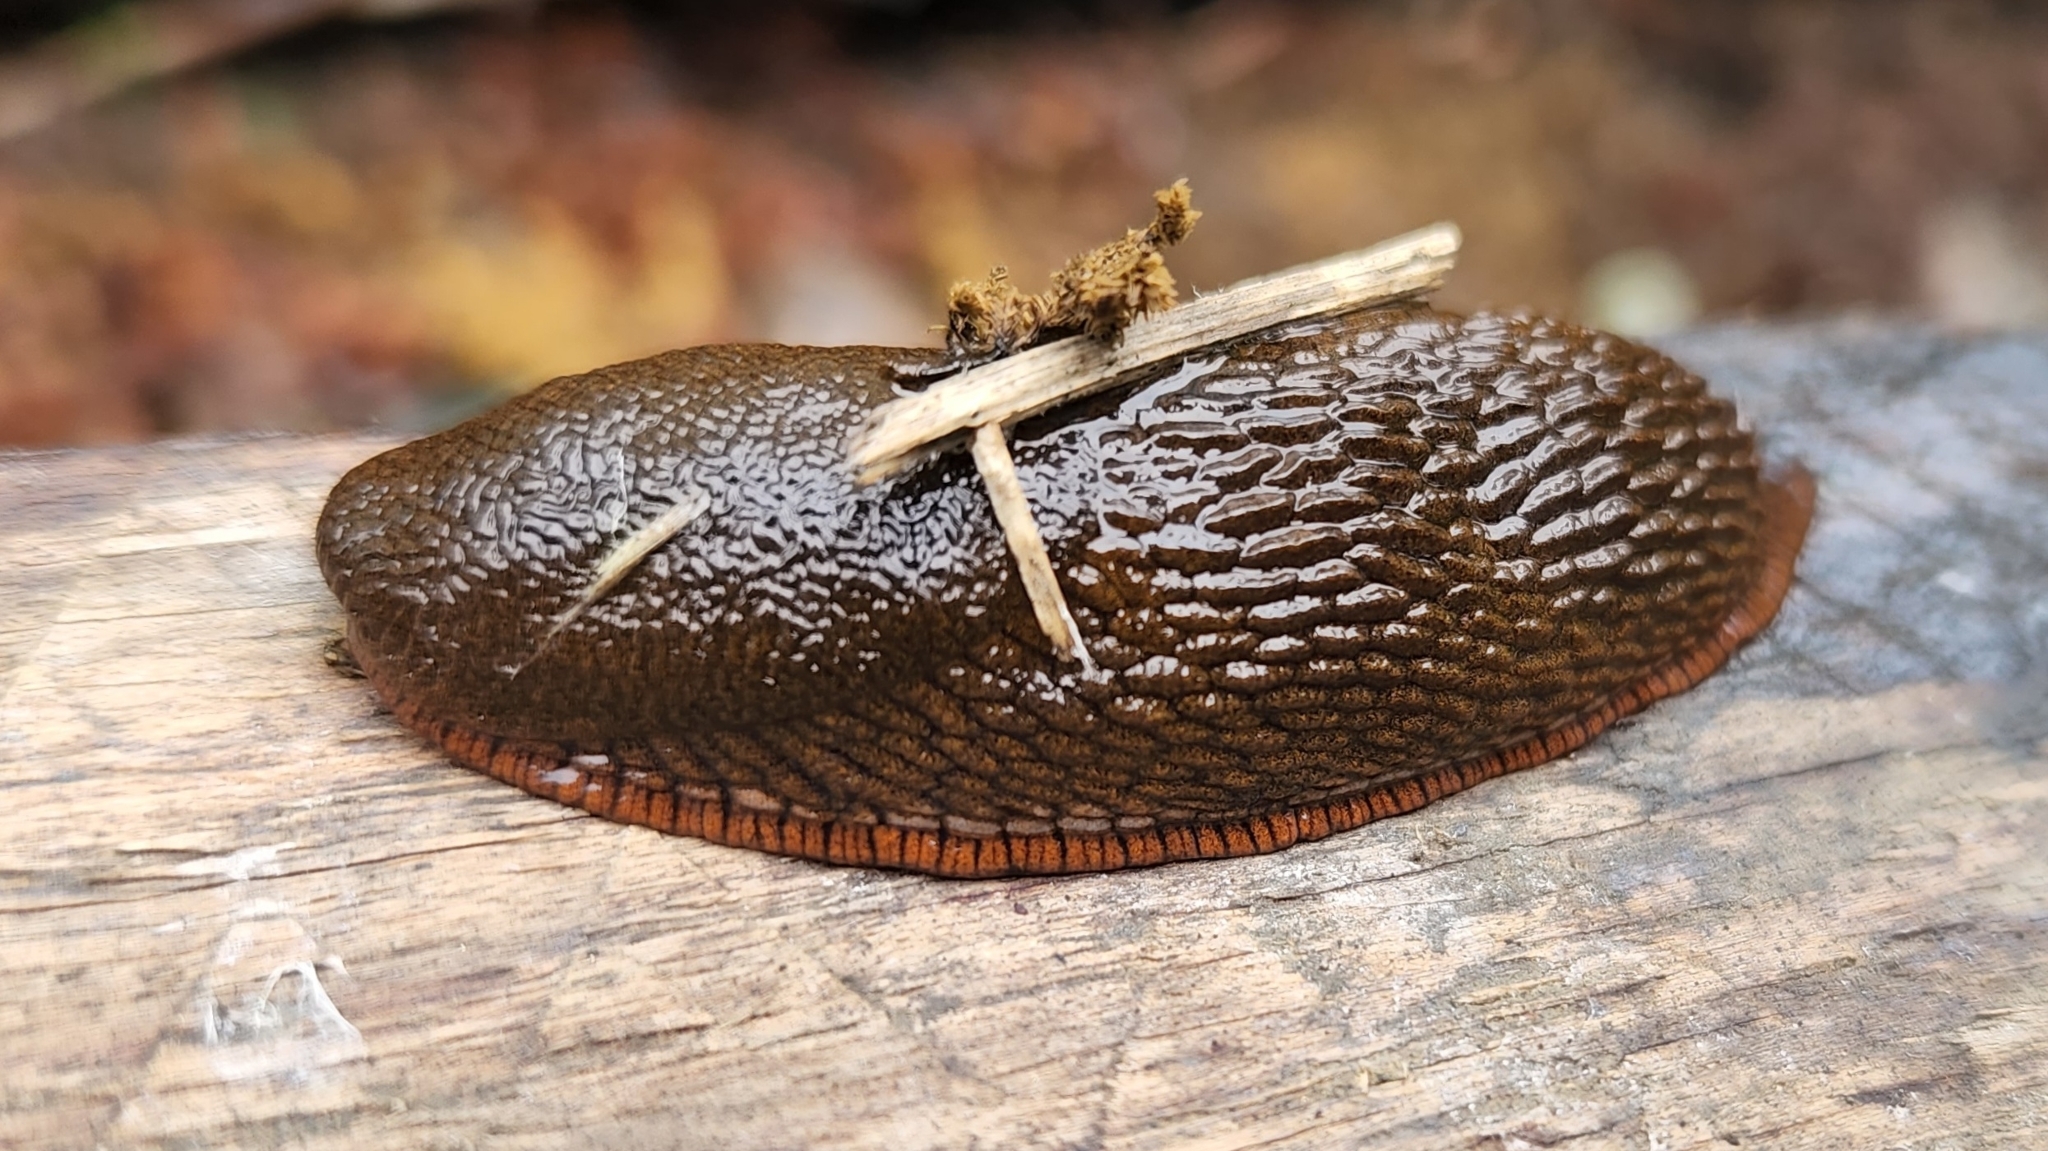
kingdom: Animalia
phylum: Mollusca
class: Gastropoda
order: Stylommatophora
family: Arionidae
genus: Arion
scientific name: Arion
